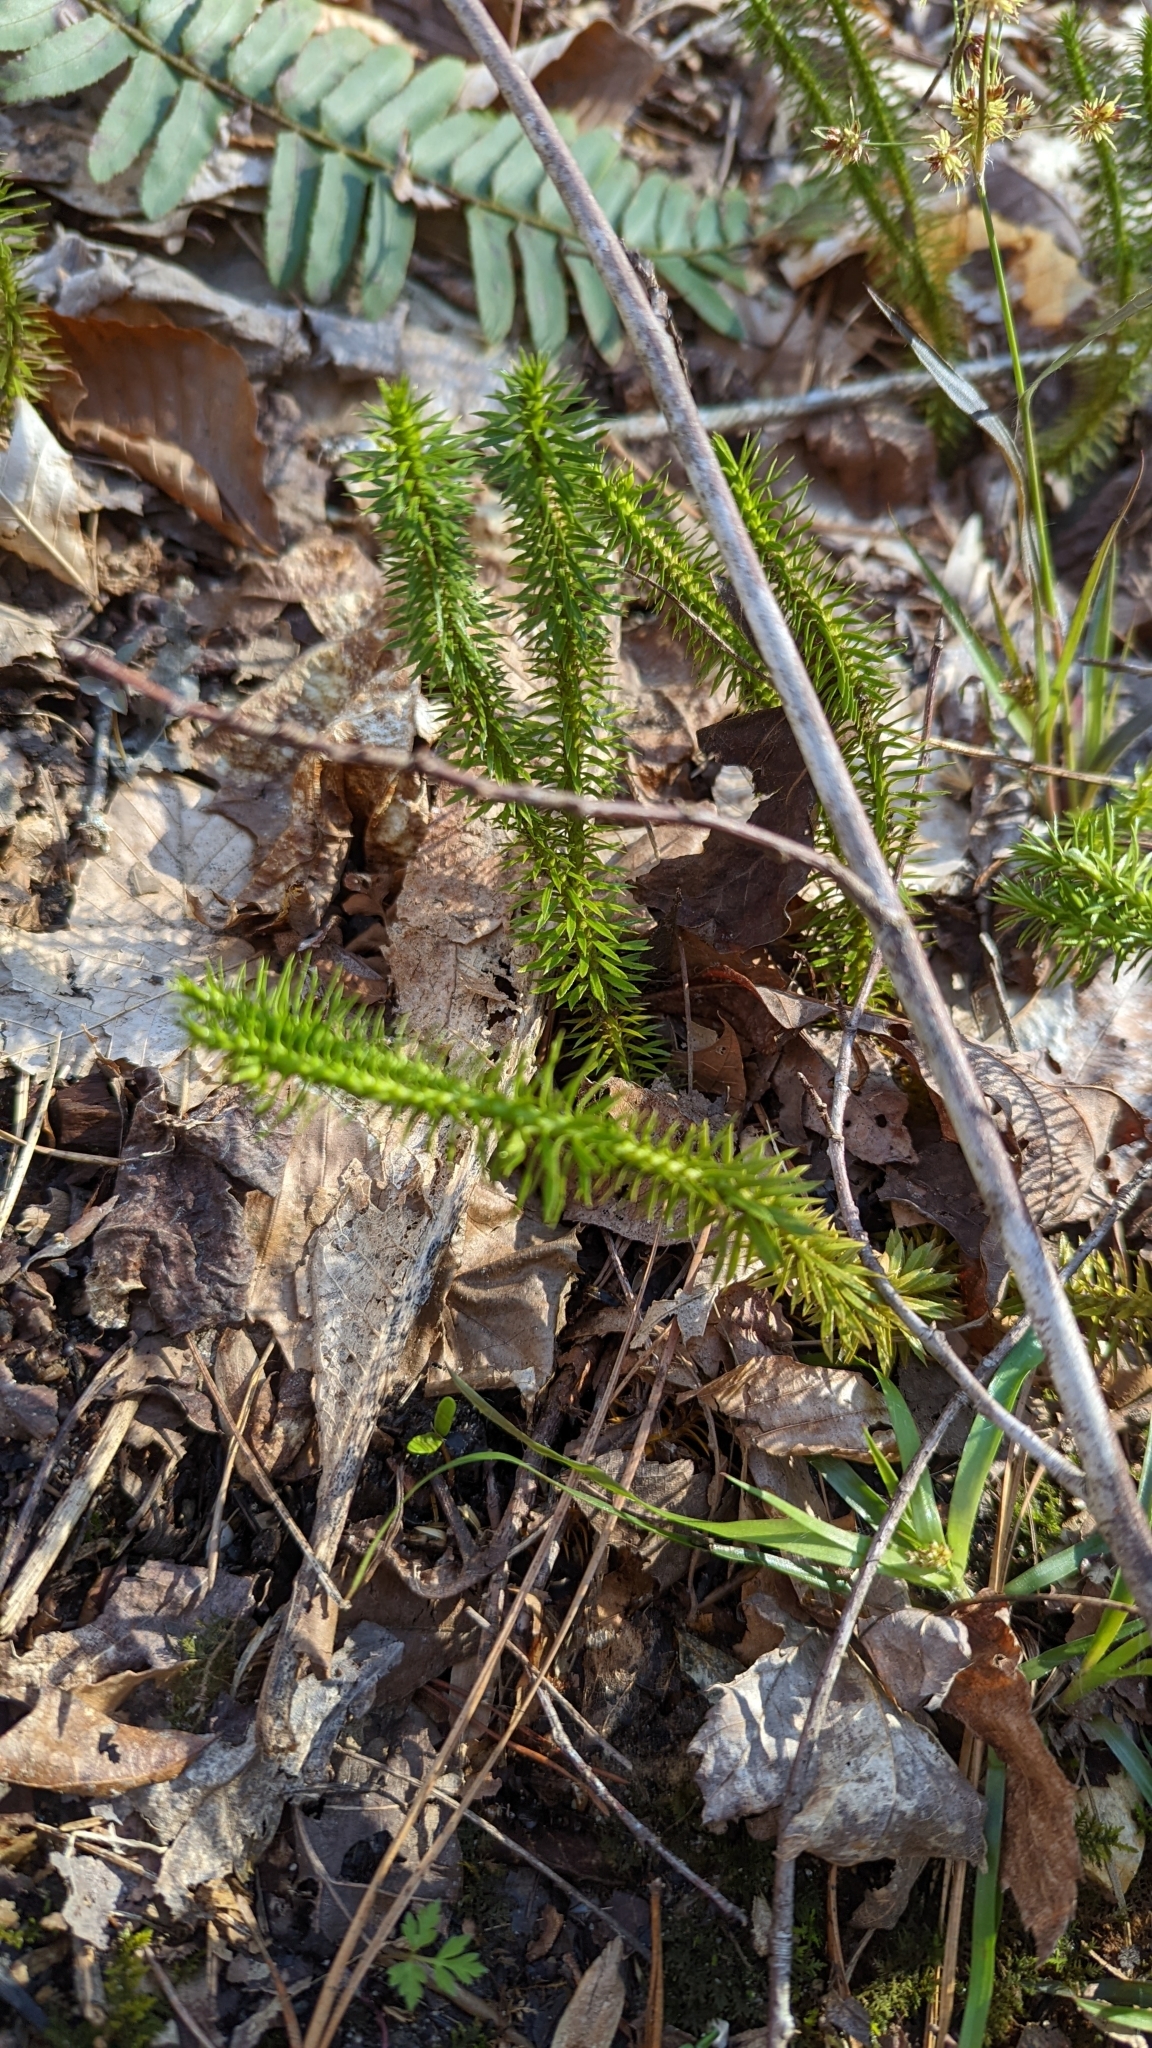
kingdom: Plantae
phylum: Tracheophyta
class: Lycopodiopsida
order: Lycopodiales
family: Lycopodiaceae
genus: Huperzia
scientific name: Huperzia lucidula
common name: Shining clubmoss
